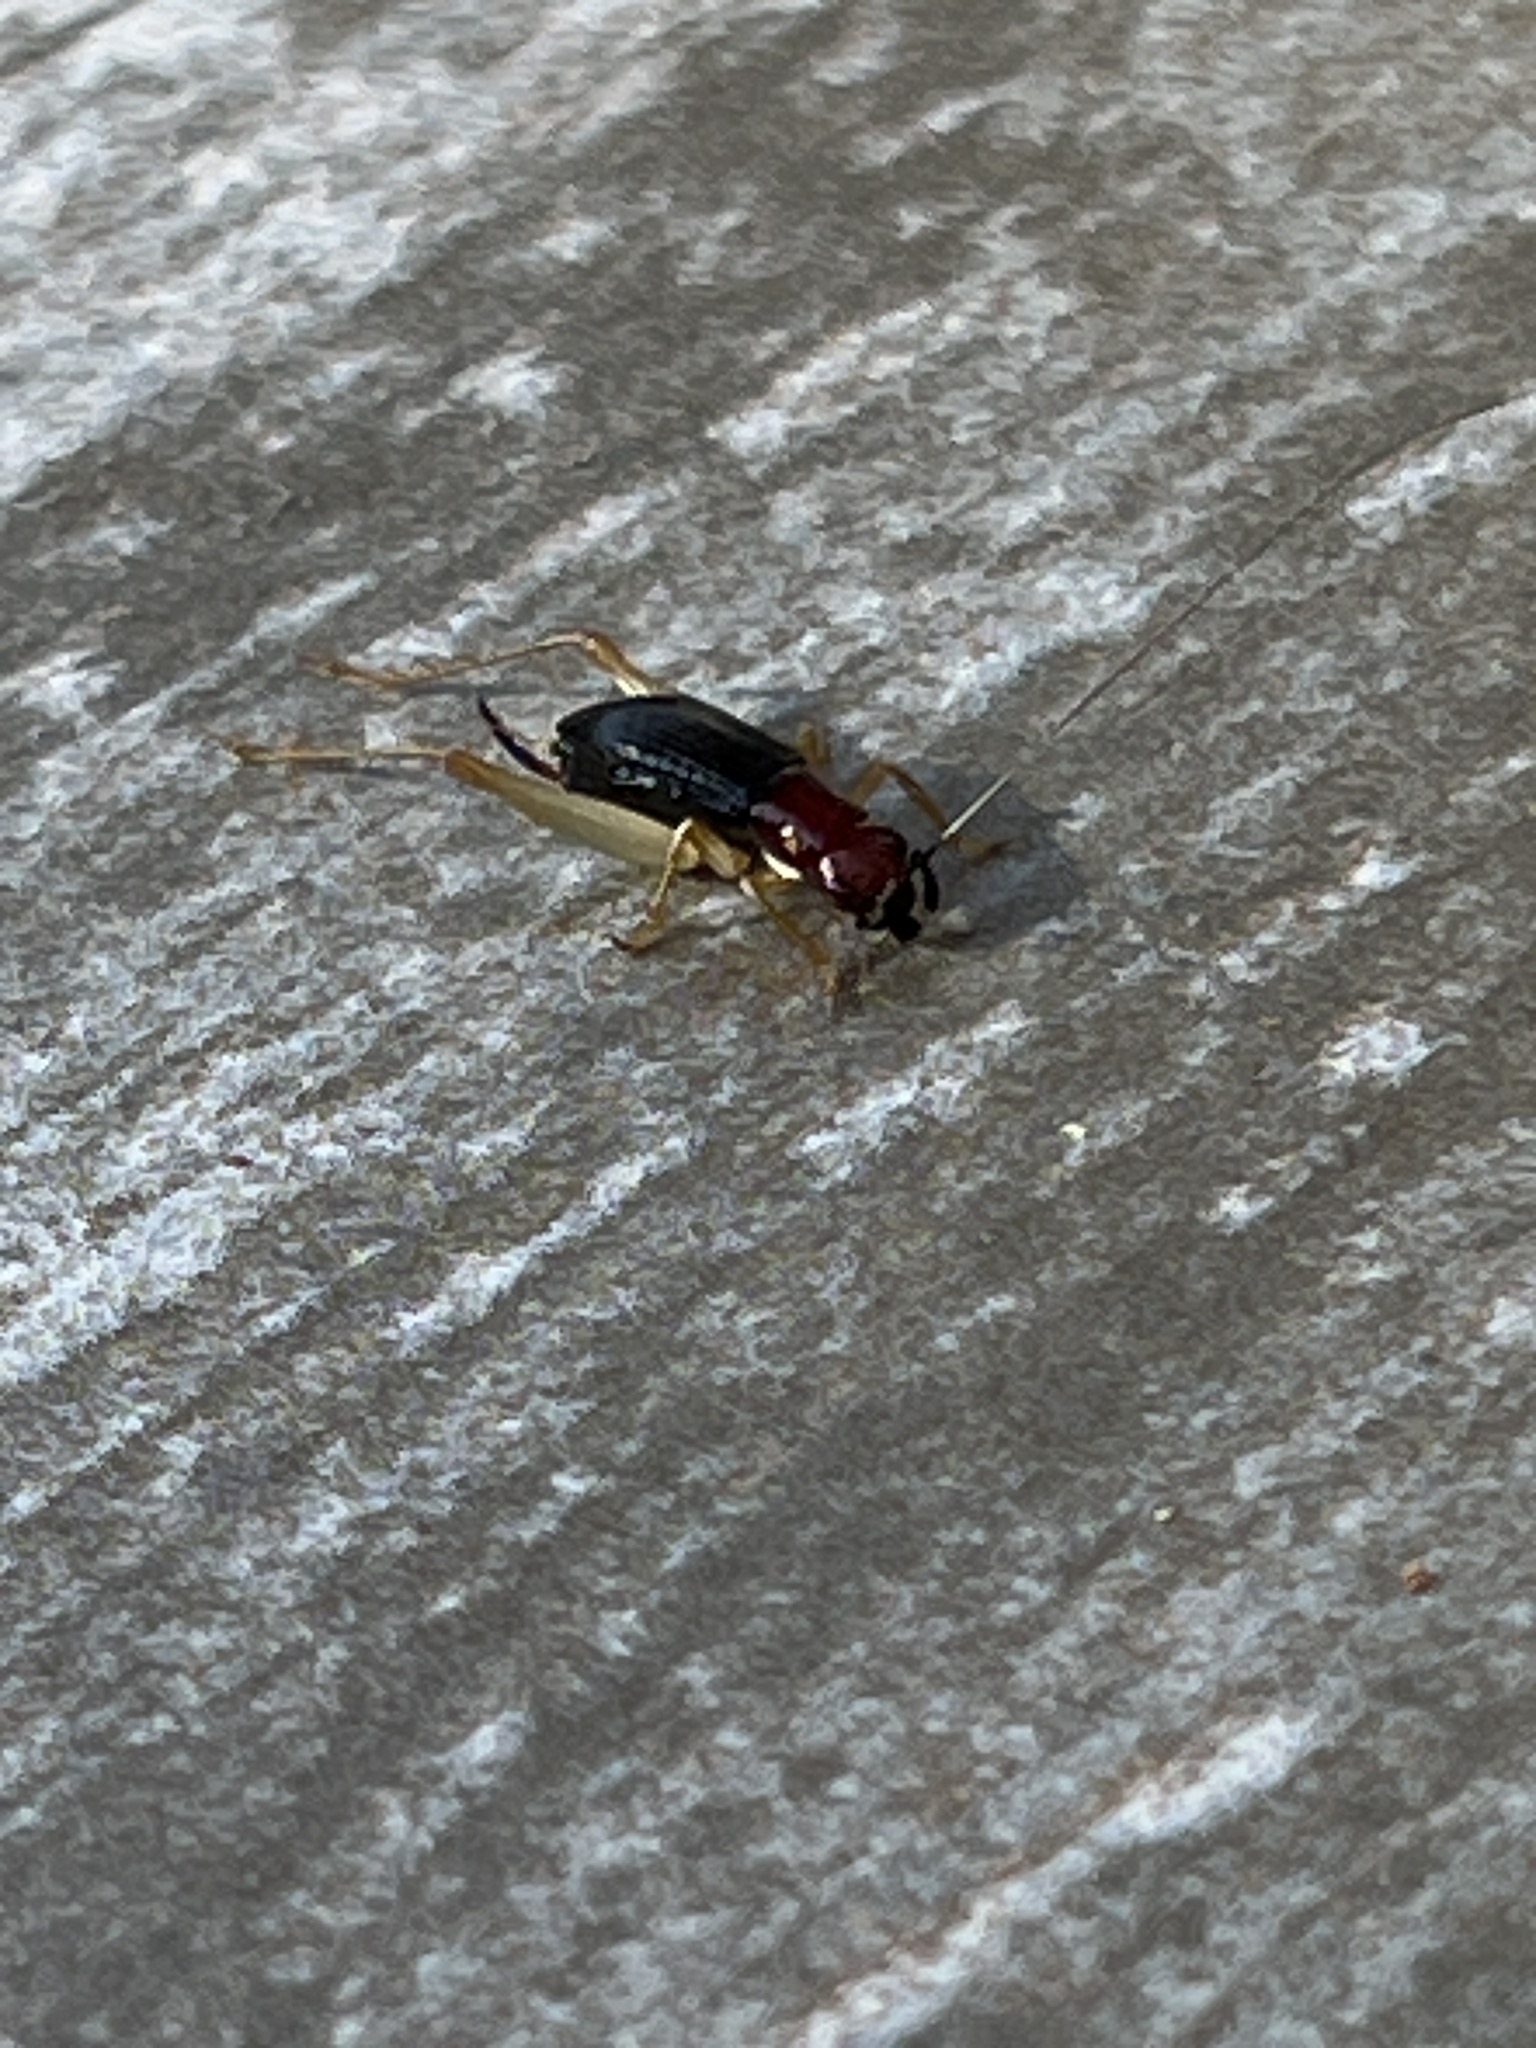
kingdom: Animalia
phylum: Arthropoda
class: Insecta
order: Orthoptera
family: Trigonidiidae
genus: Phyllopalpus
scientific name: Phyllopalpus pulchellus
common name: Handsome trig
